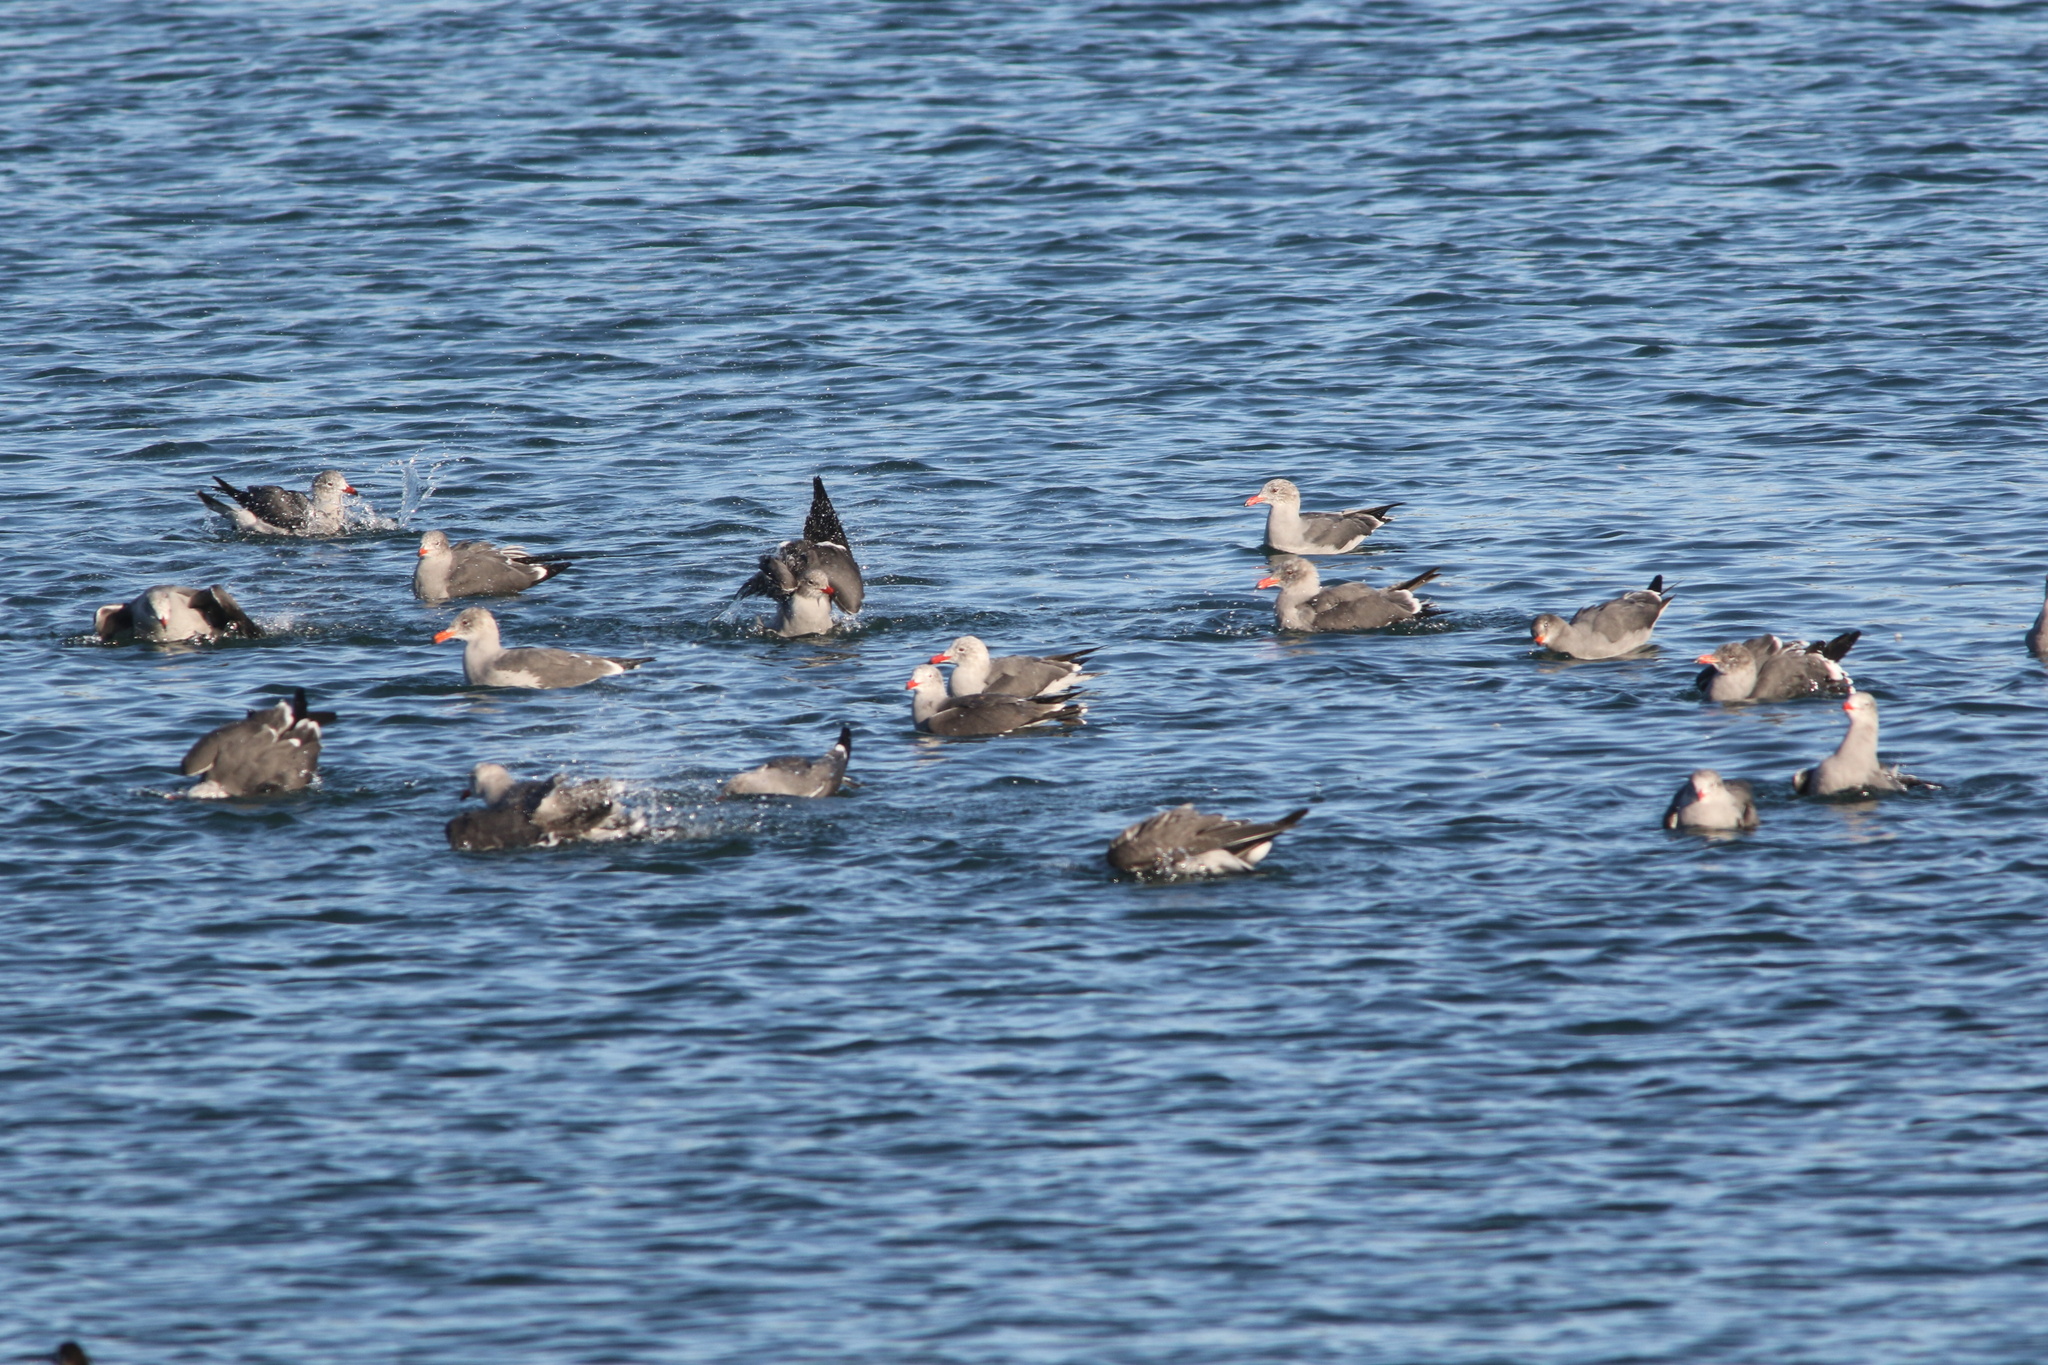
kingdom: Animalia
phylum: Chordata
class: Aves
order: Charadriiformes
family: Laridae
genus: Larus
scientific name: Larus heermanni
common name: Heermann's gull
